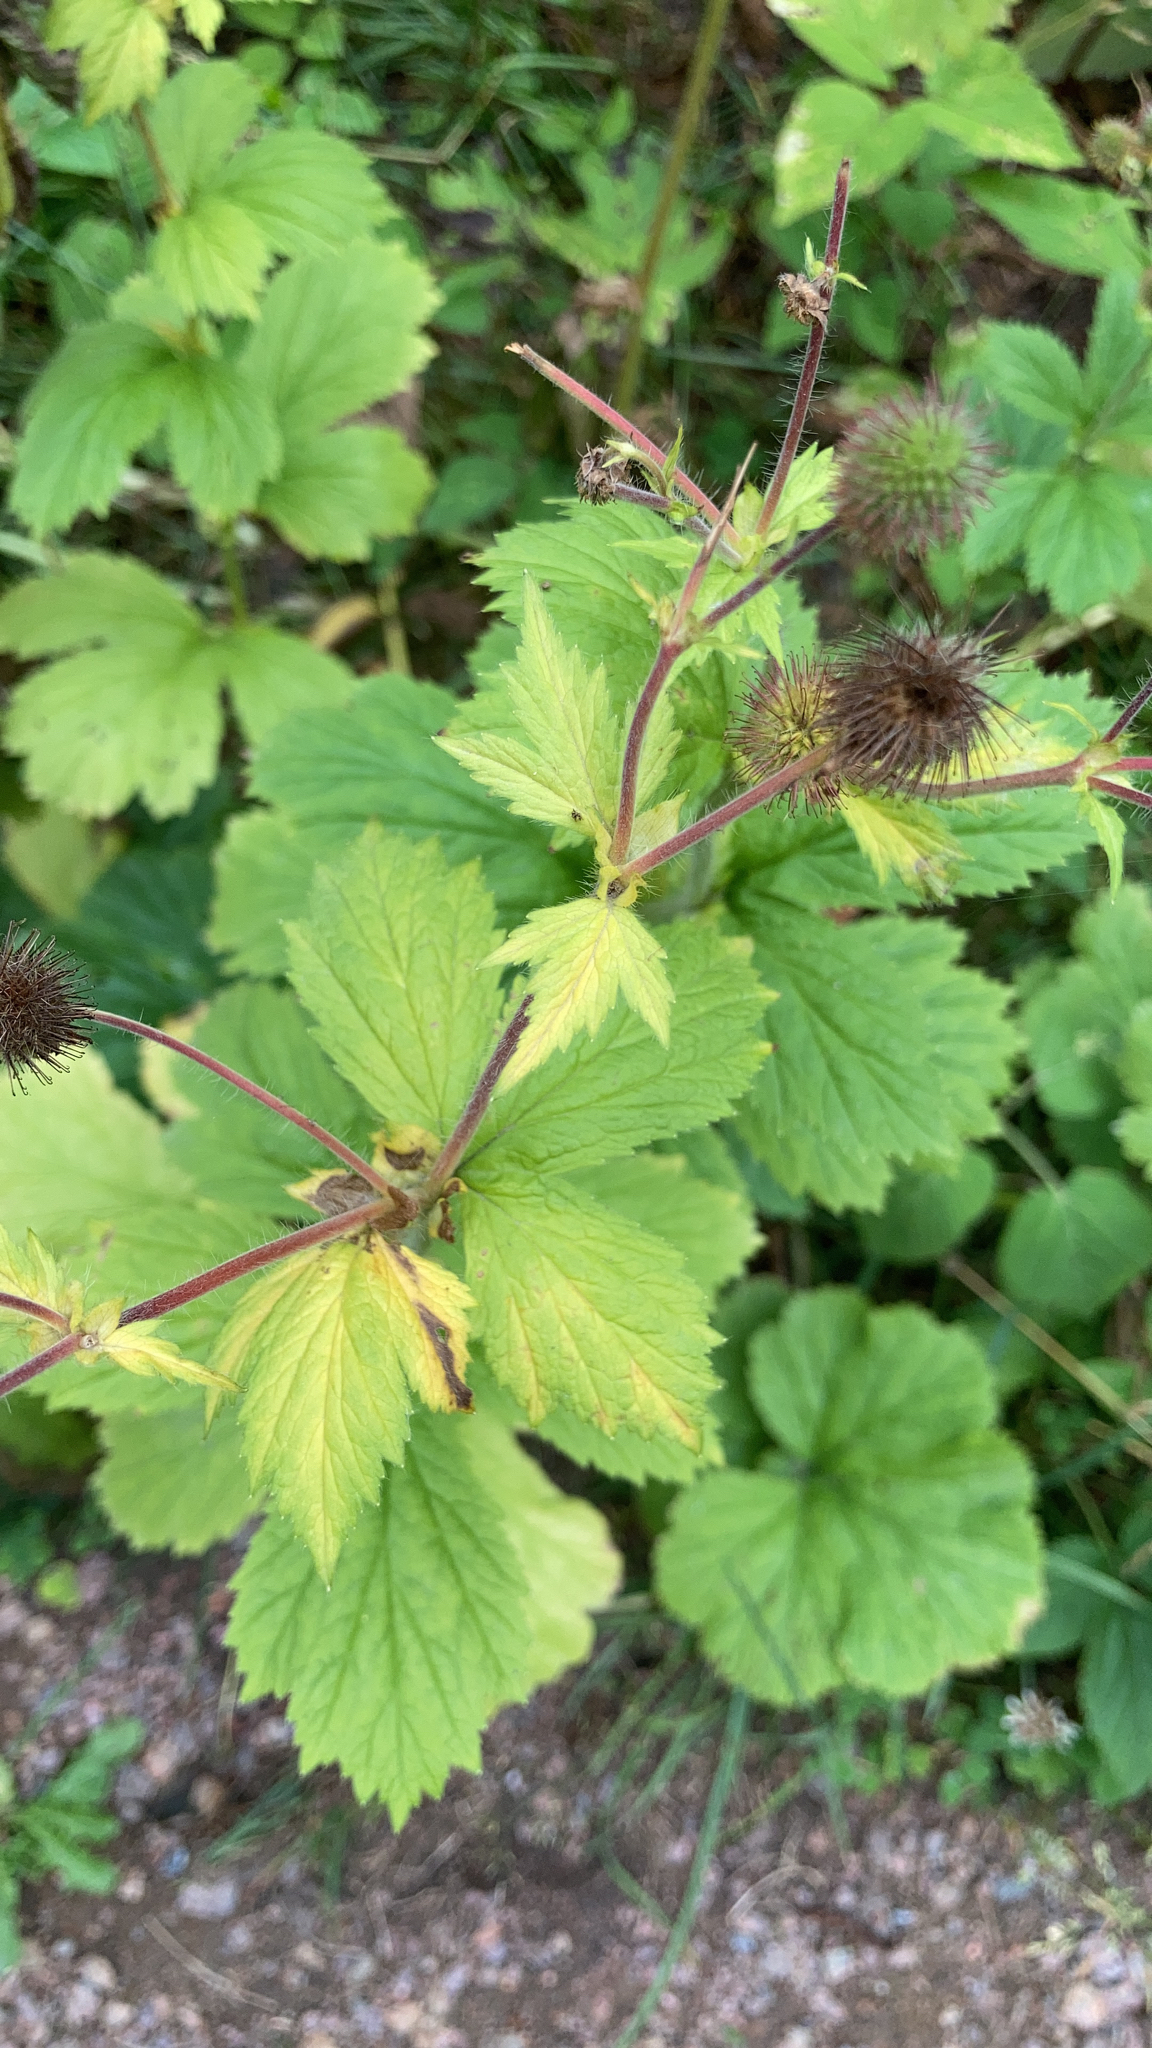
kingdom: Plantae
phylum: Tracheophyta
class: Magnoliopsida
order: Rosales
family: Rosaceae
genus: Geum
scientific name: Geum macrophyllum
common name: Large-leaved avens
